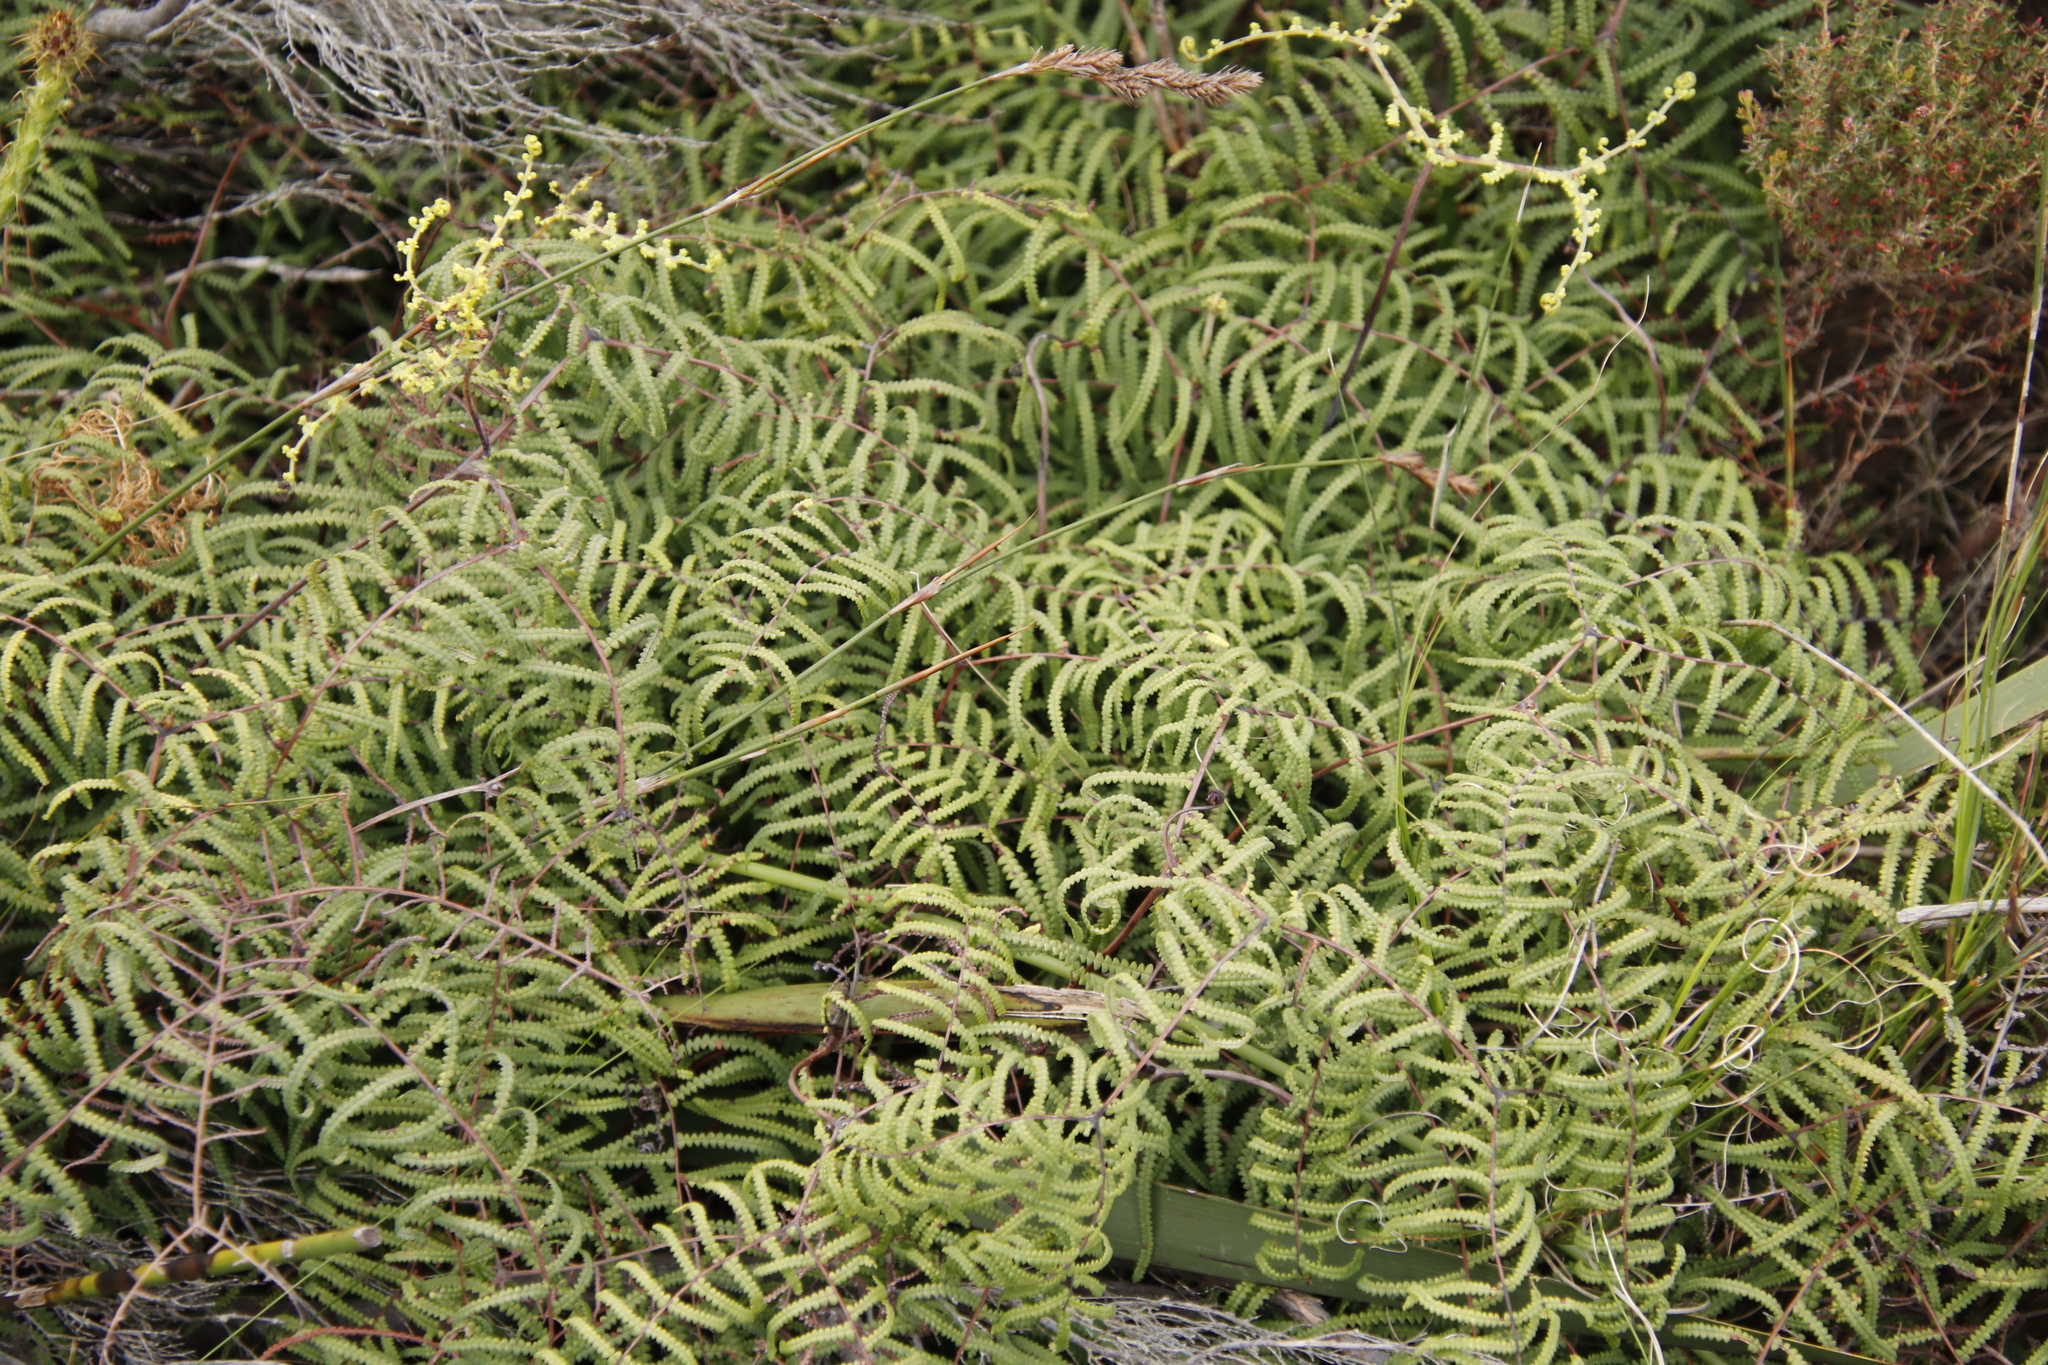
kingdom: Plantae
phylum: Tracheophyta
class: Polypodiopsida
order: Gleicheniales
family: Gleicheniaceae
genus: Gleichenia
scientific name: Gleichenia polypodioides
